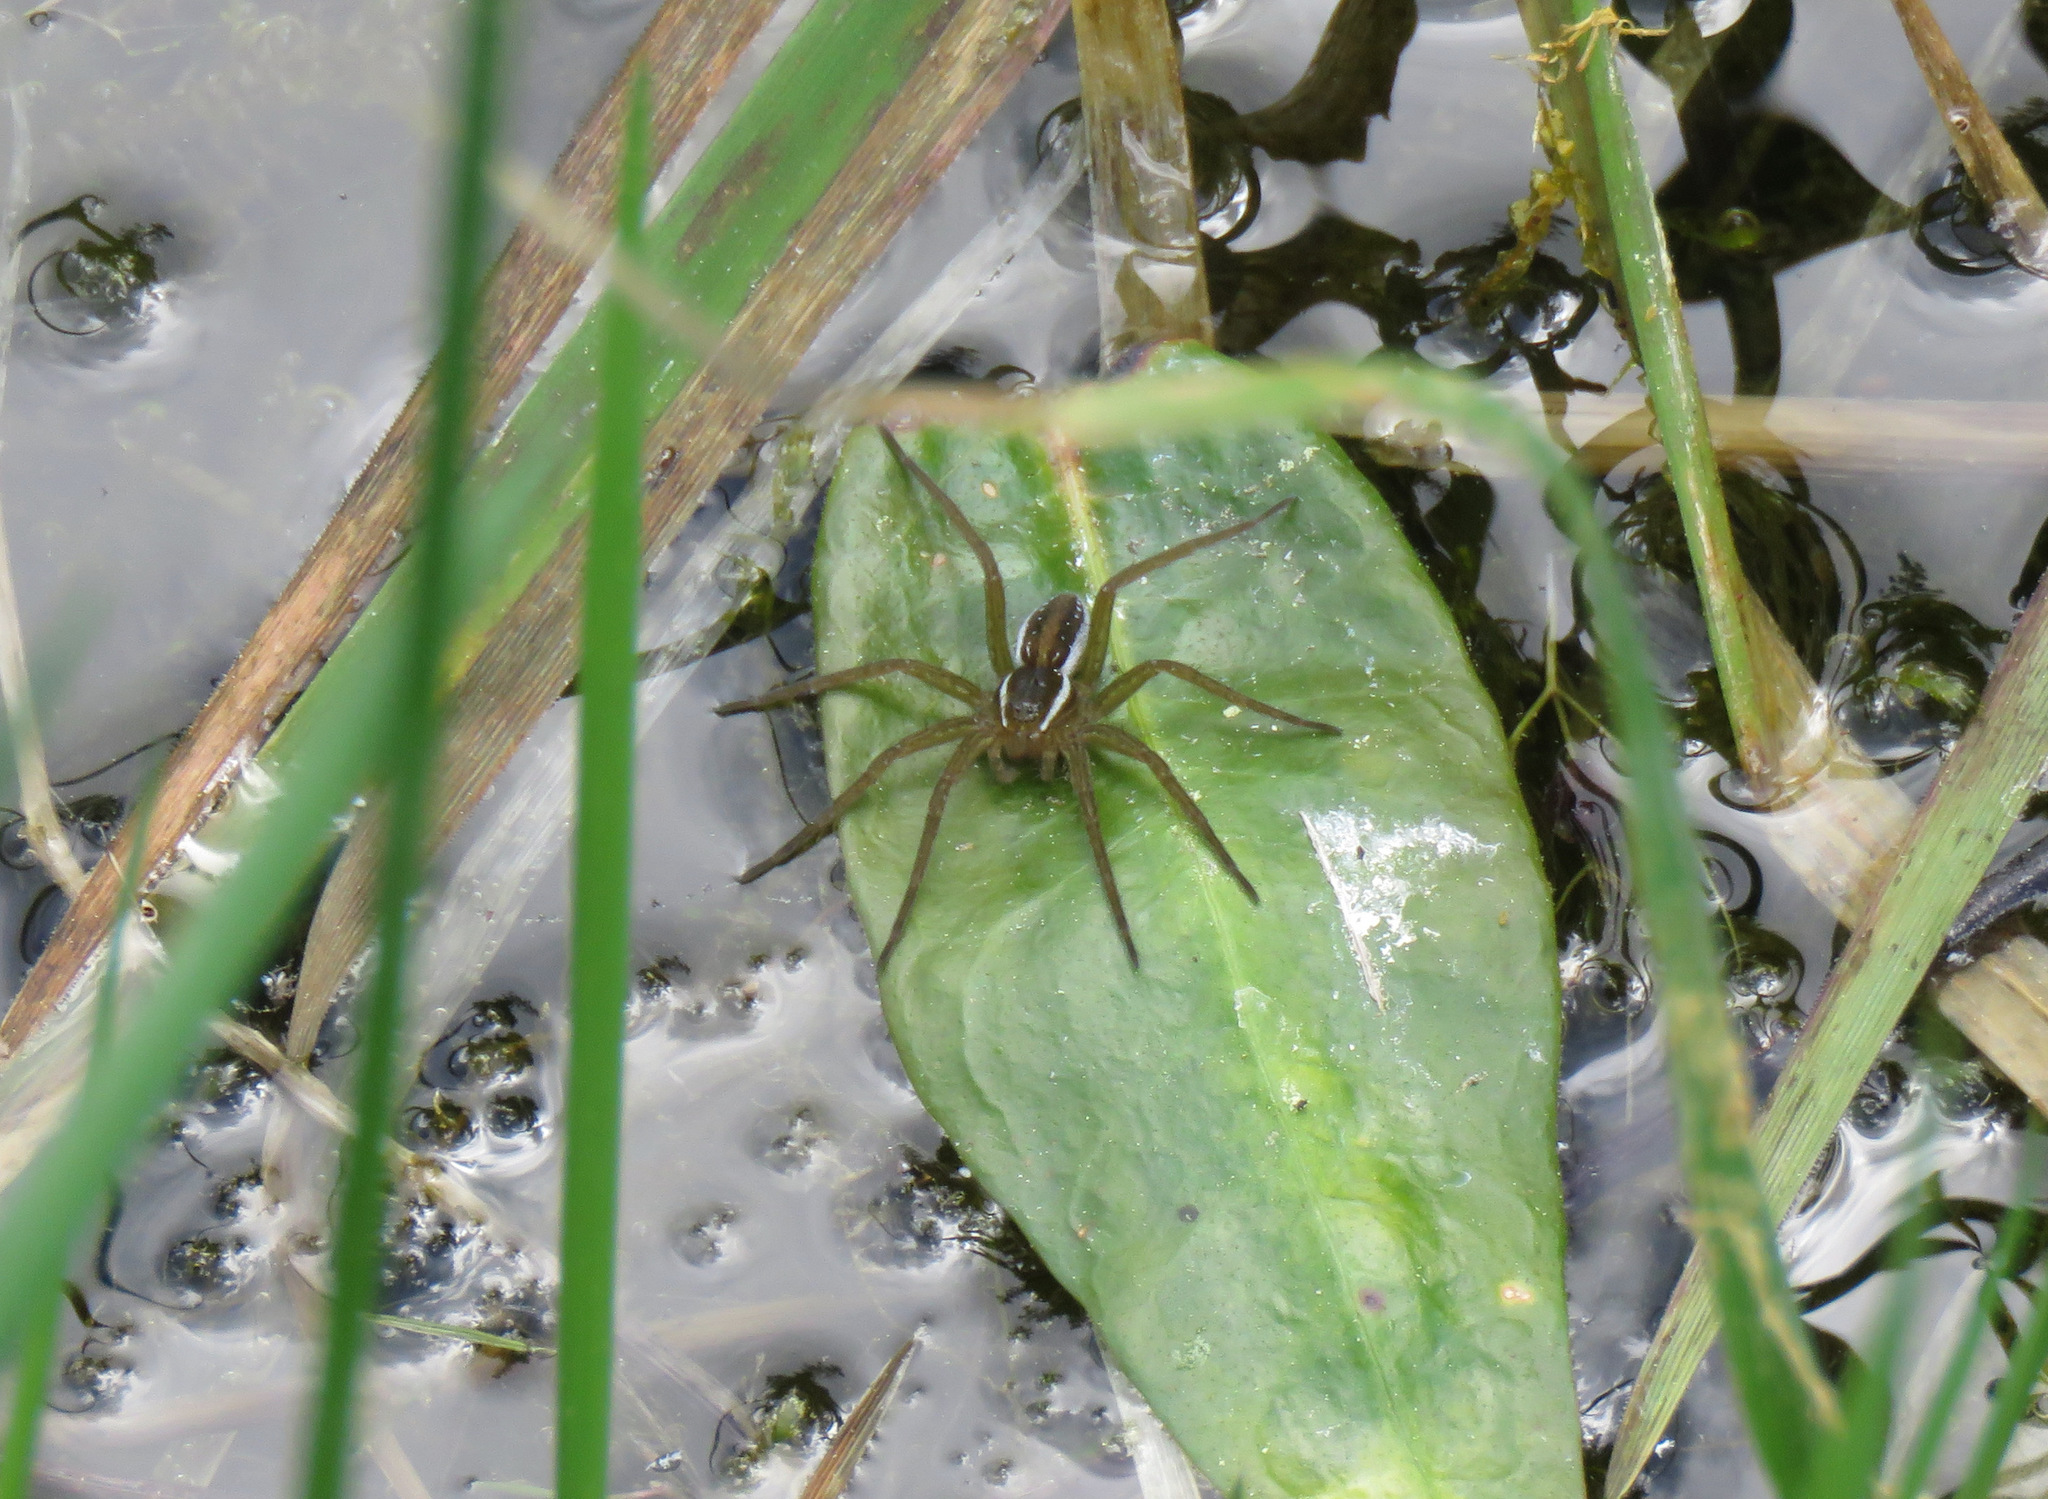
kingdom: Animalia
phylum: Arthropoda
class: Arachnida
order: Araneae
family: Pisauridae
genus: Dolomedes
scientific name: Dolomedes triton
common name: Six-spotted fishing spider
